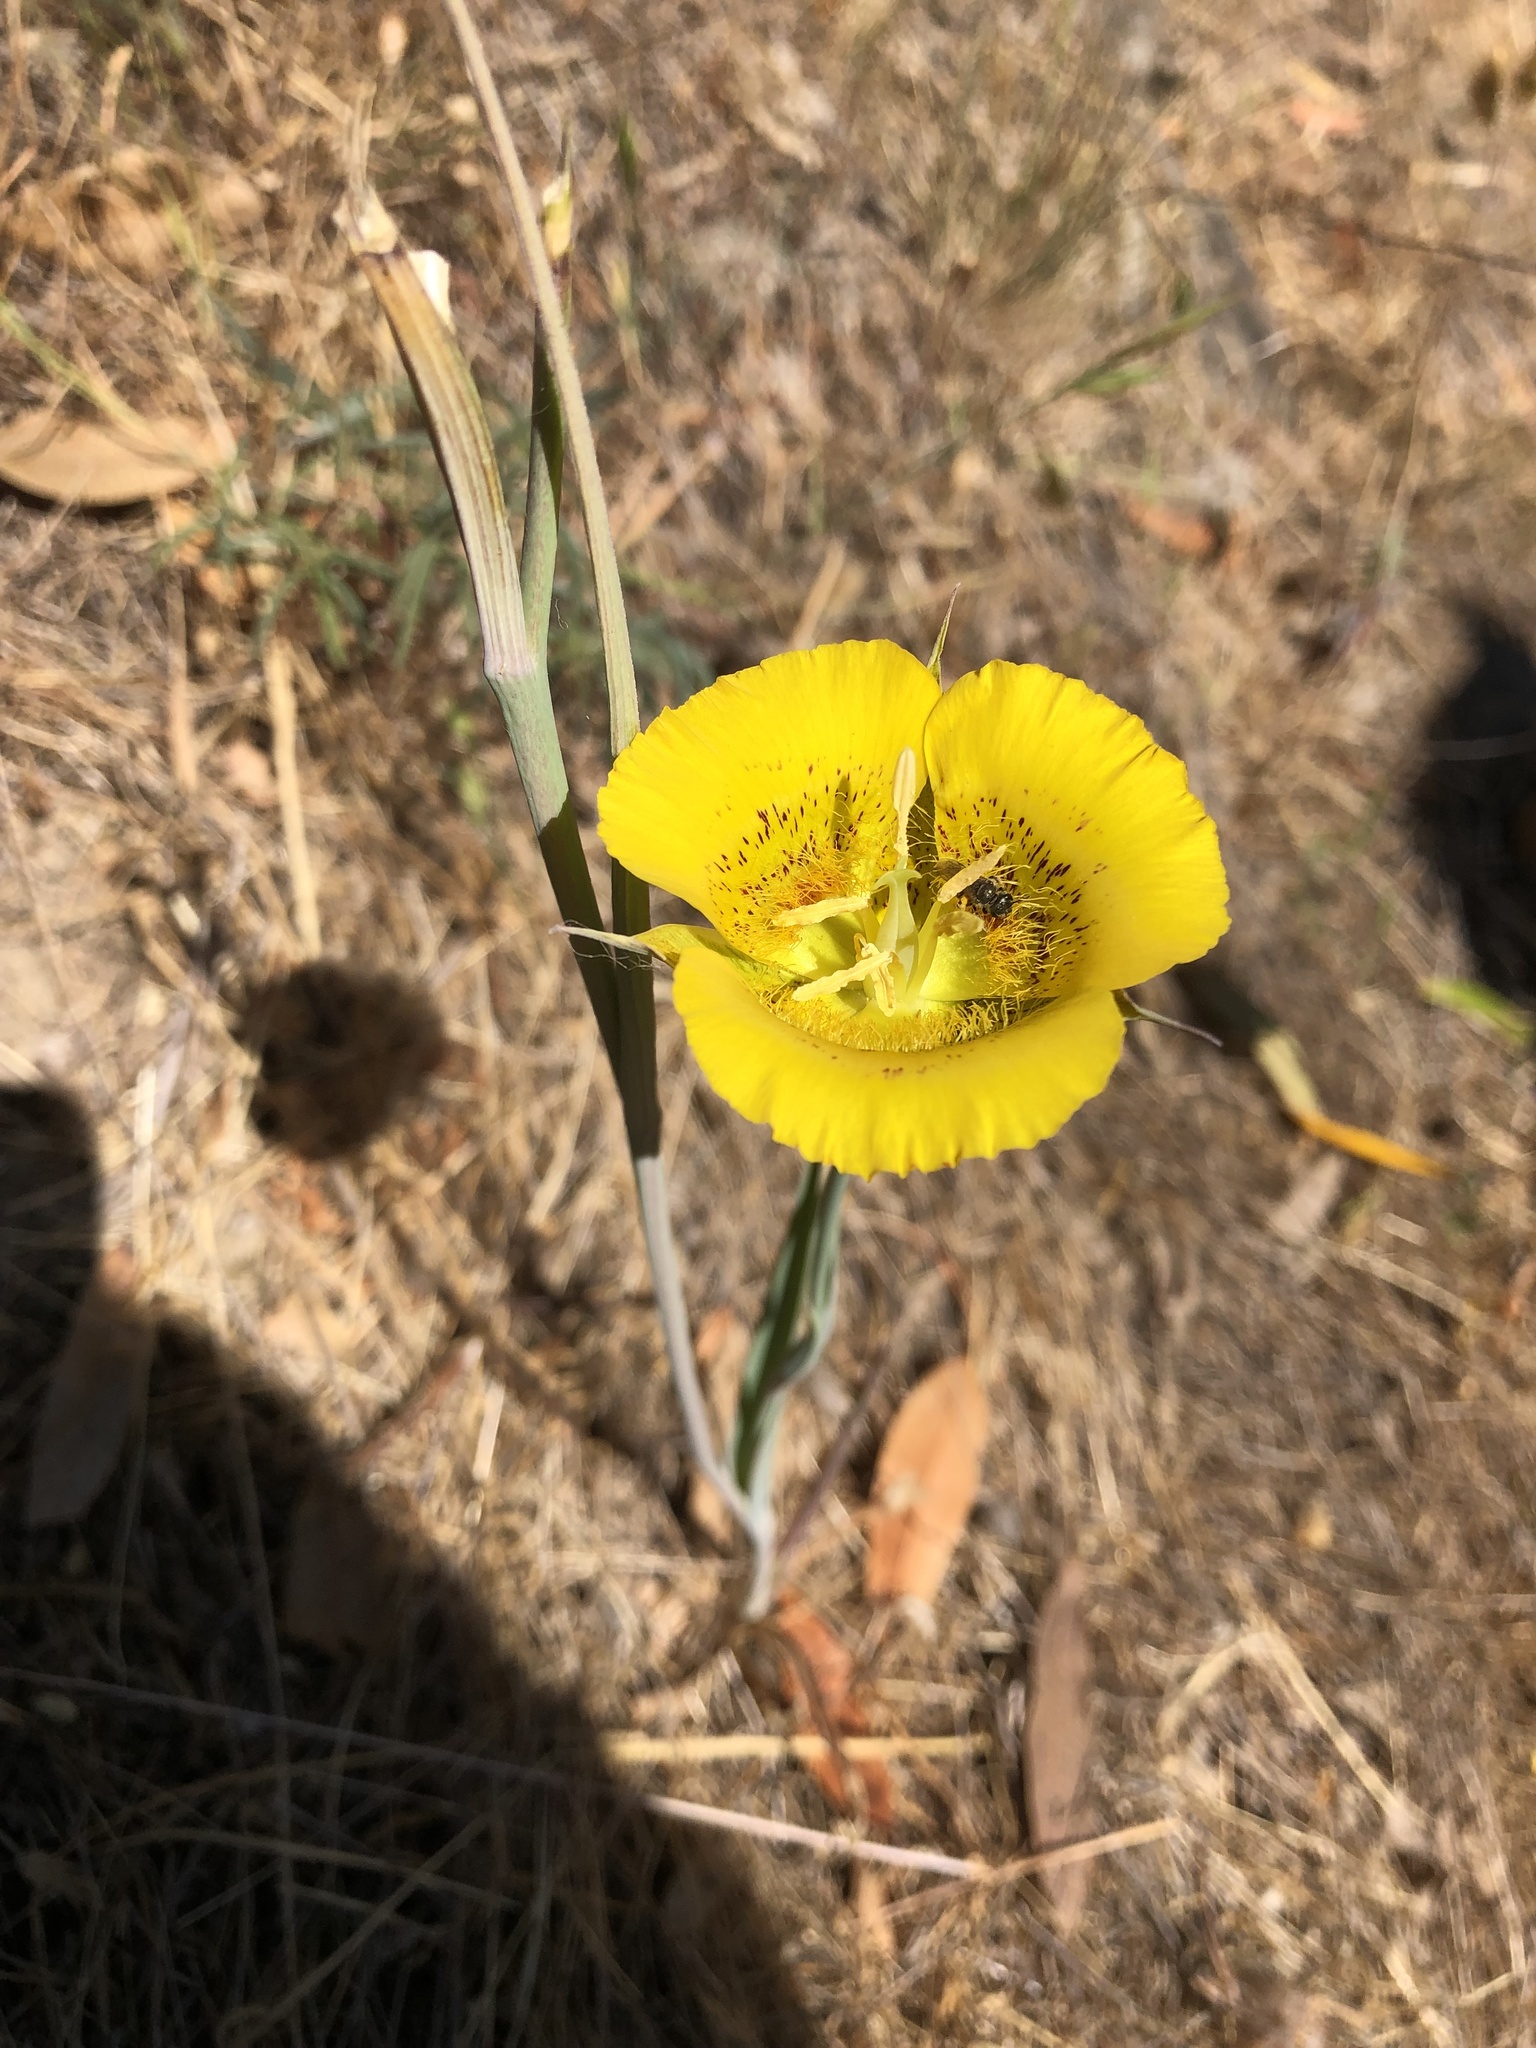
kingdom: Plantae
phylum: Tracheophyta
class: Liliopsida
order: Liliales
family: Liliaceae
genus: Calochortus
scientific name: Calochortus luteus
